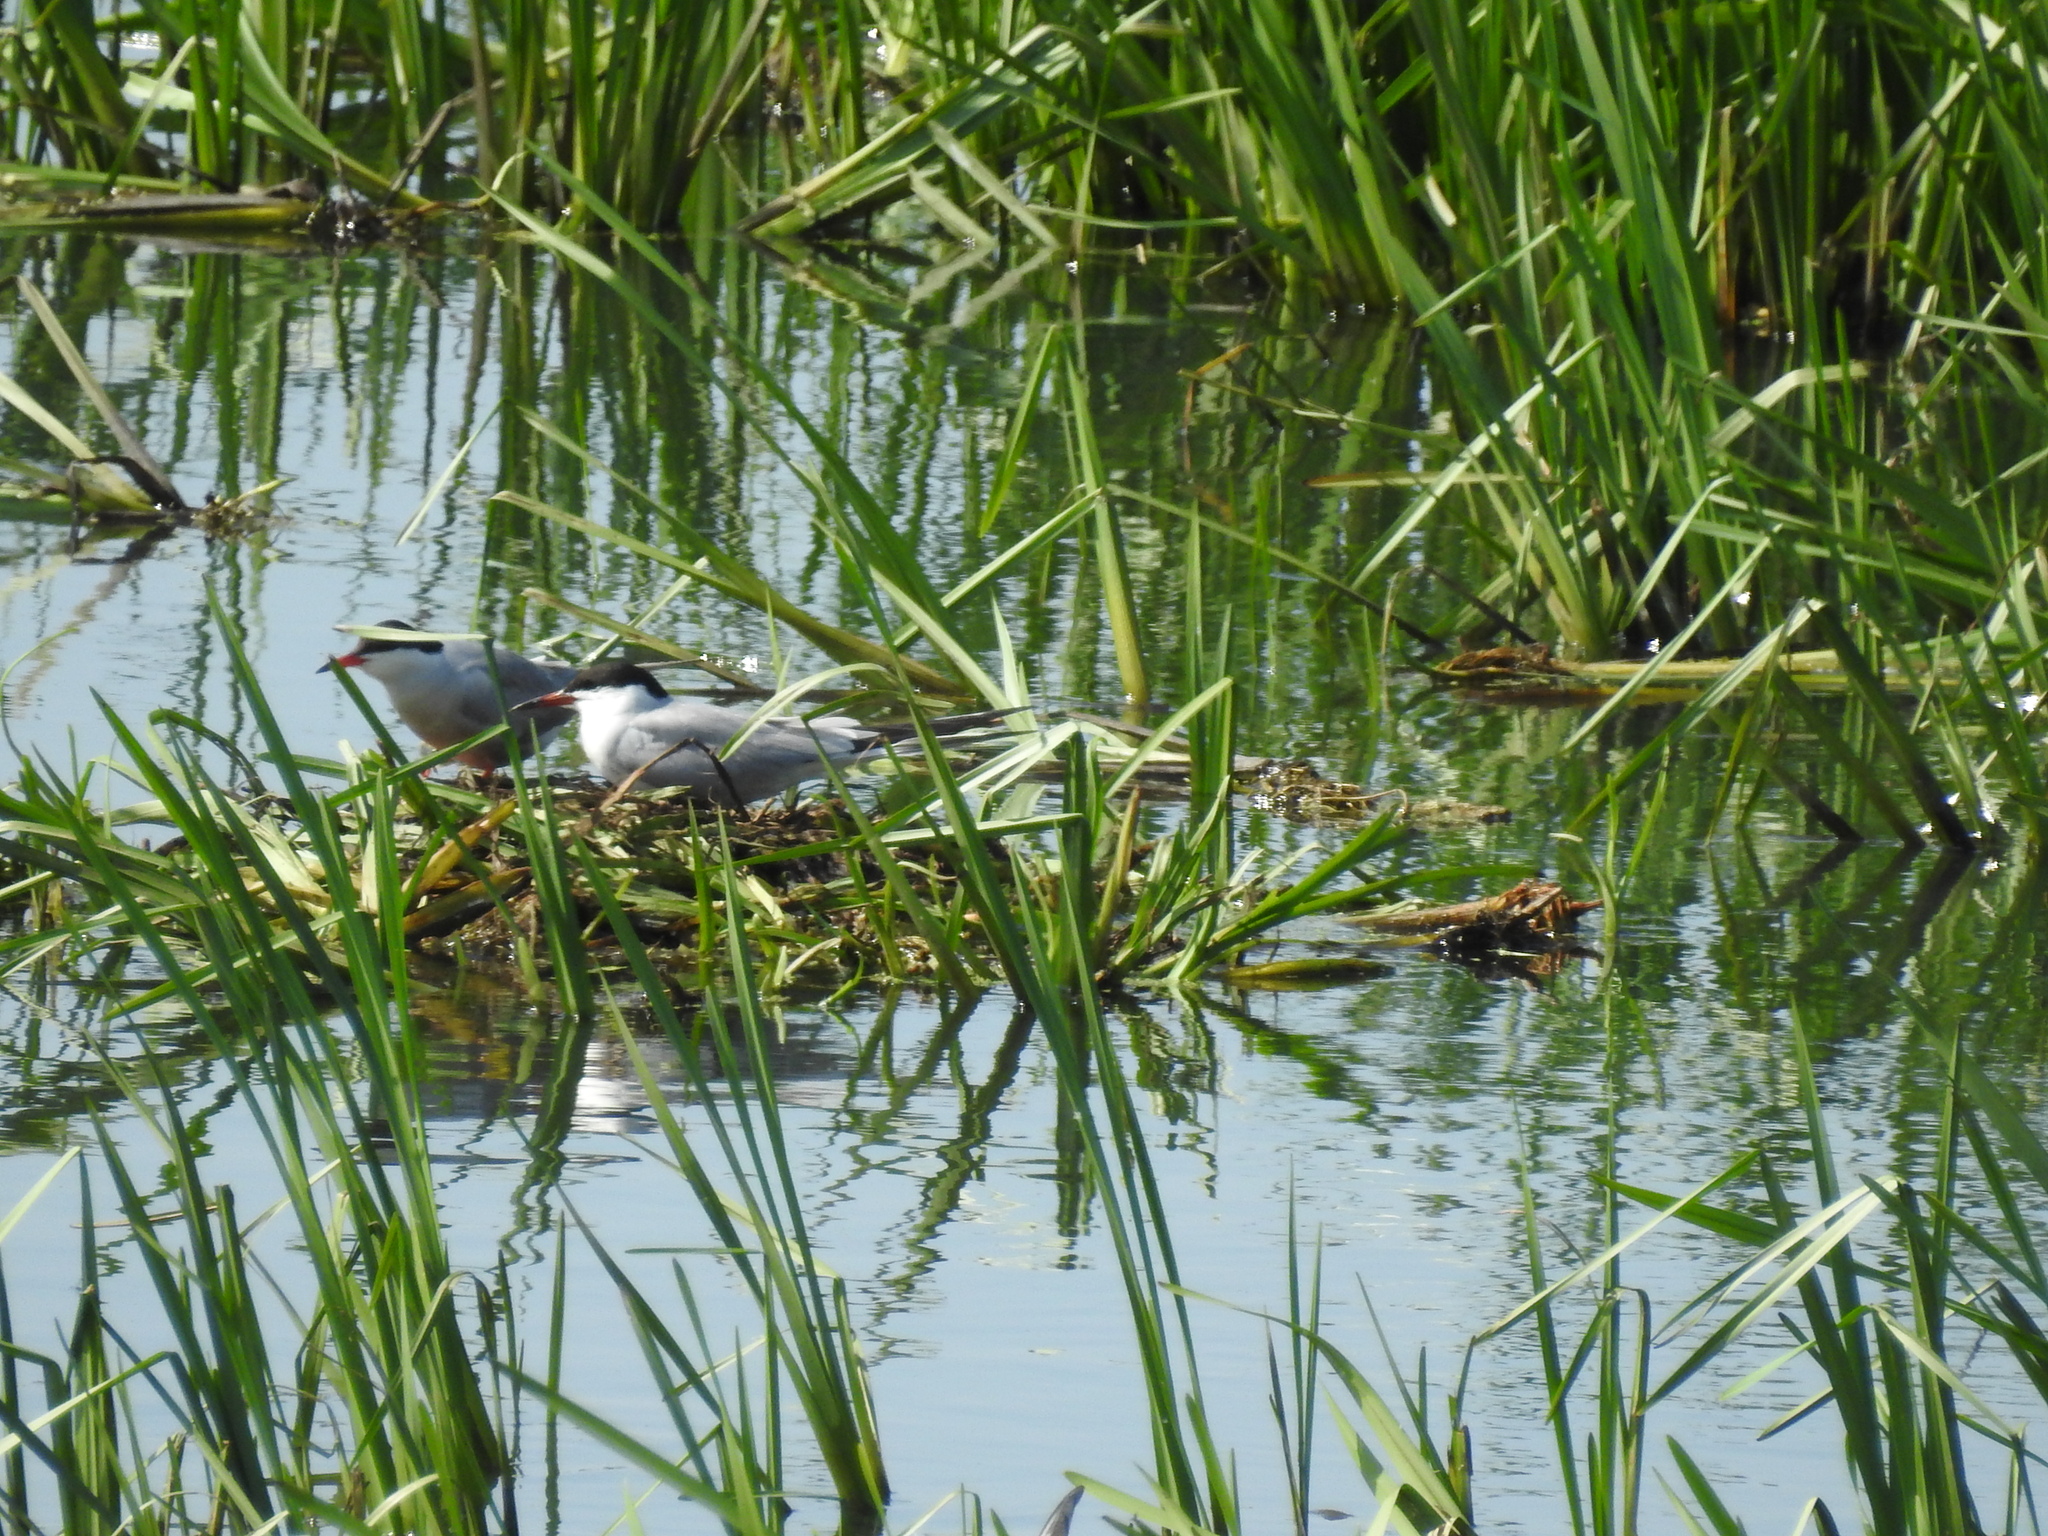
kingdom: Animalia
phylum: Chordata
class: Aves
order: Charadriiformes
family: Laridae
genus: Sterna
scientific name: Sterna hirundo
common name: Common tern
